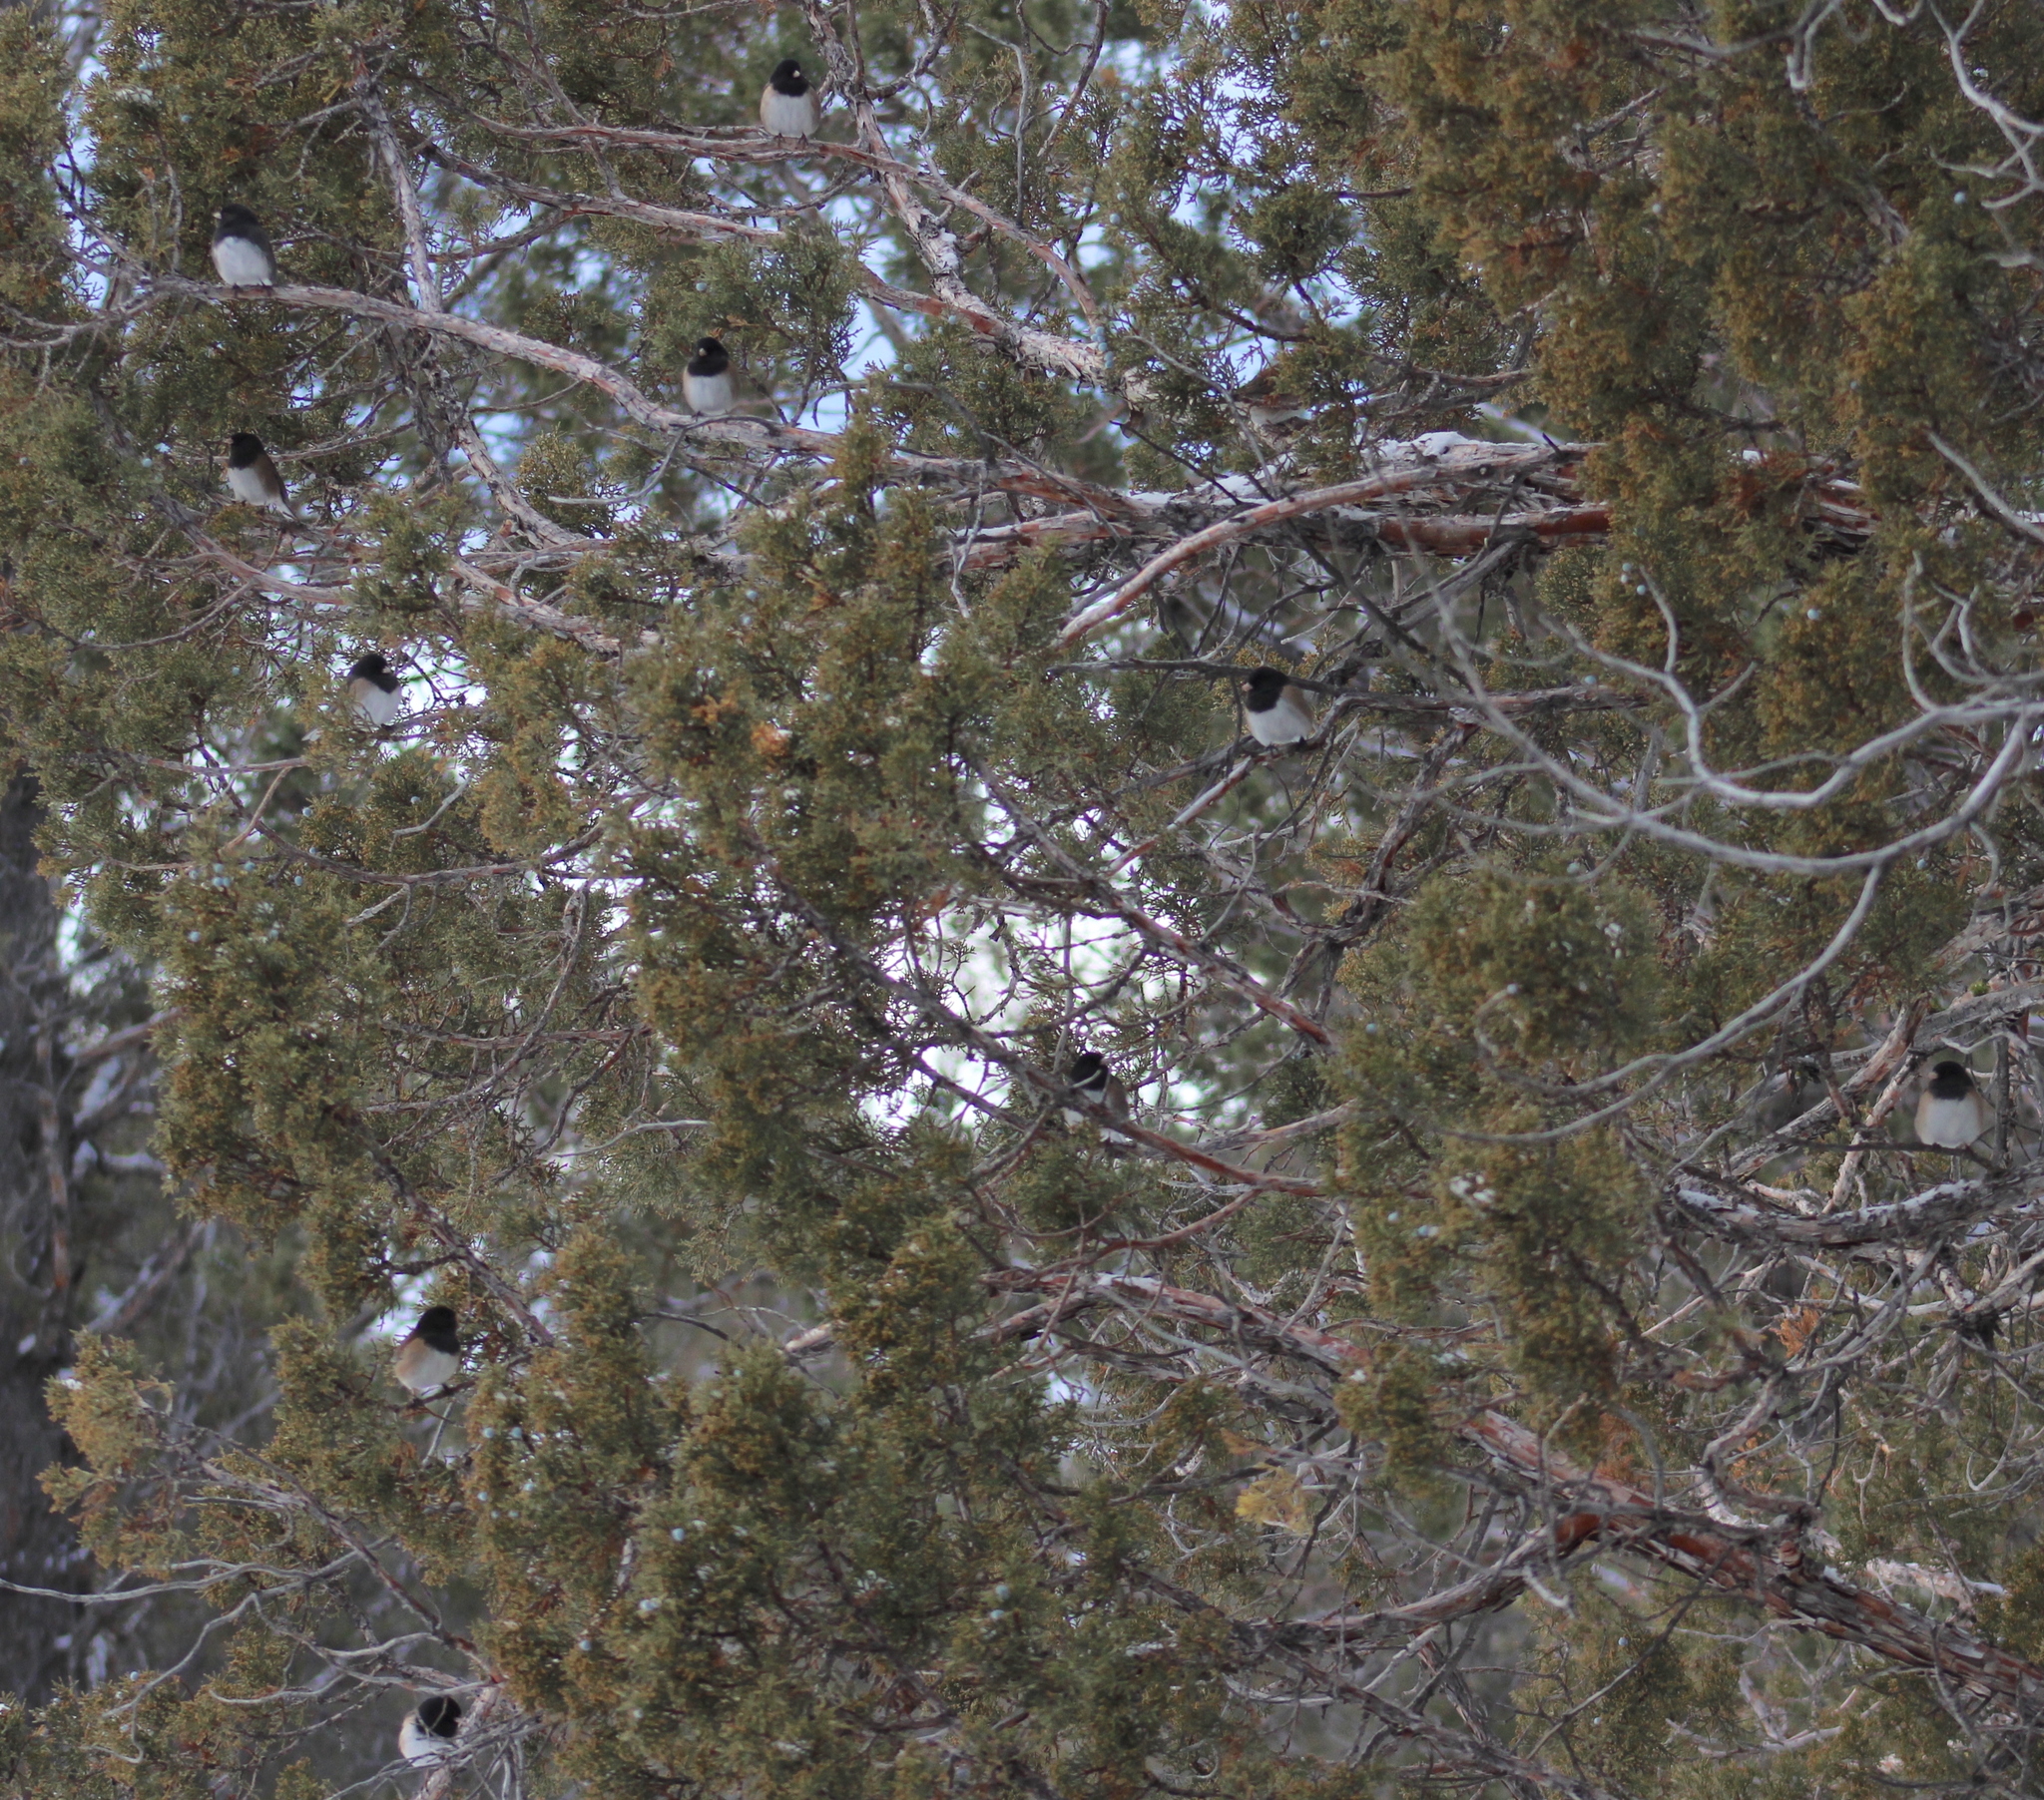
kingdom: Animalia
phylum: Chordata
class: Aves
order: Passeriformes
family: Passerellidae
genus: Junco
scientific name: Junco hyemalis
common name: Dark-eyed junco
